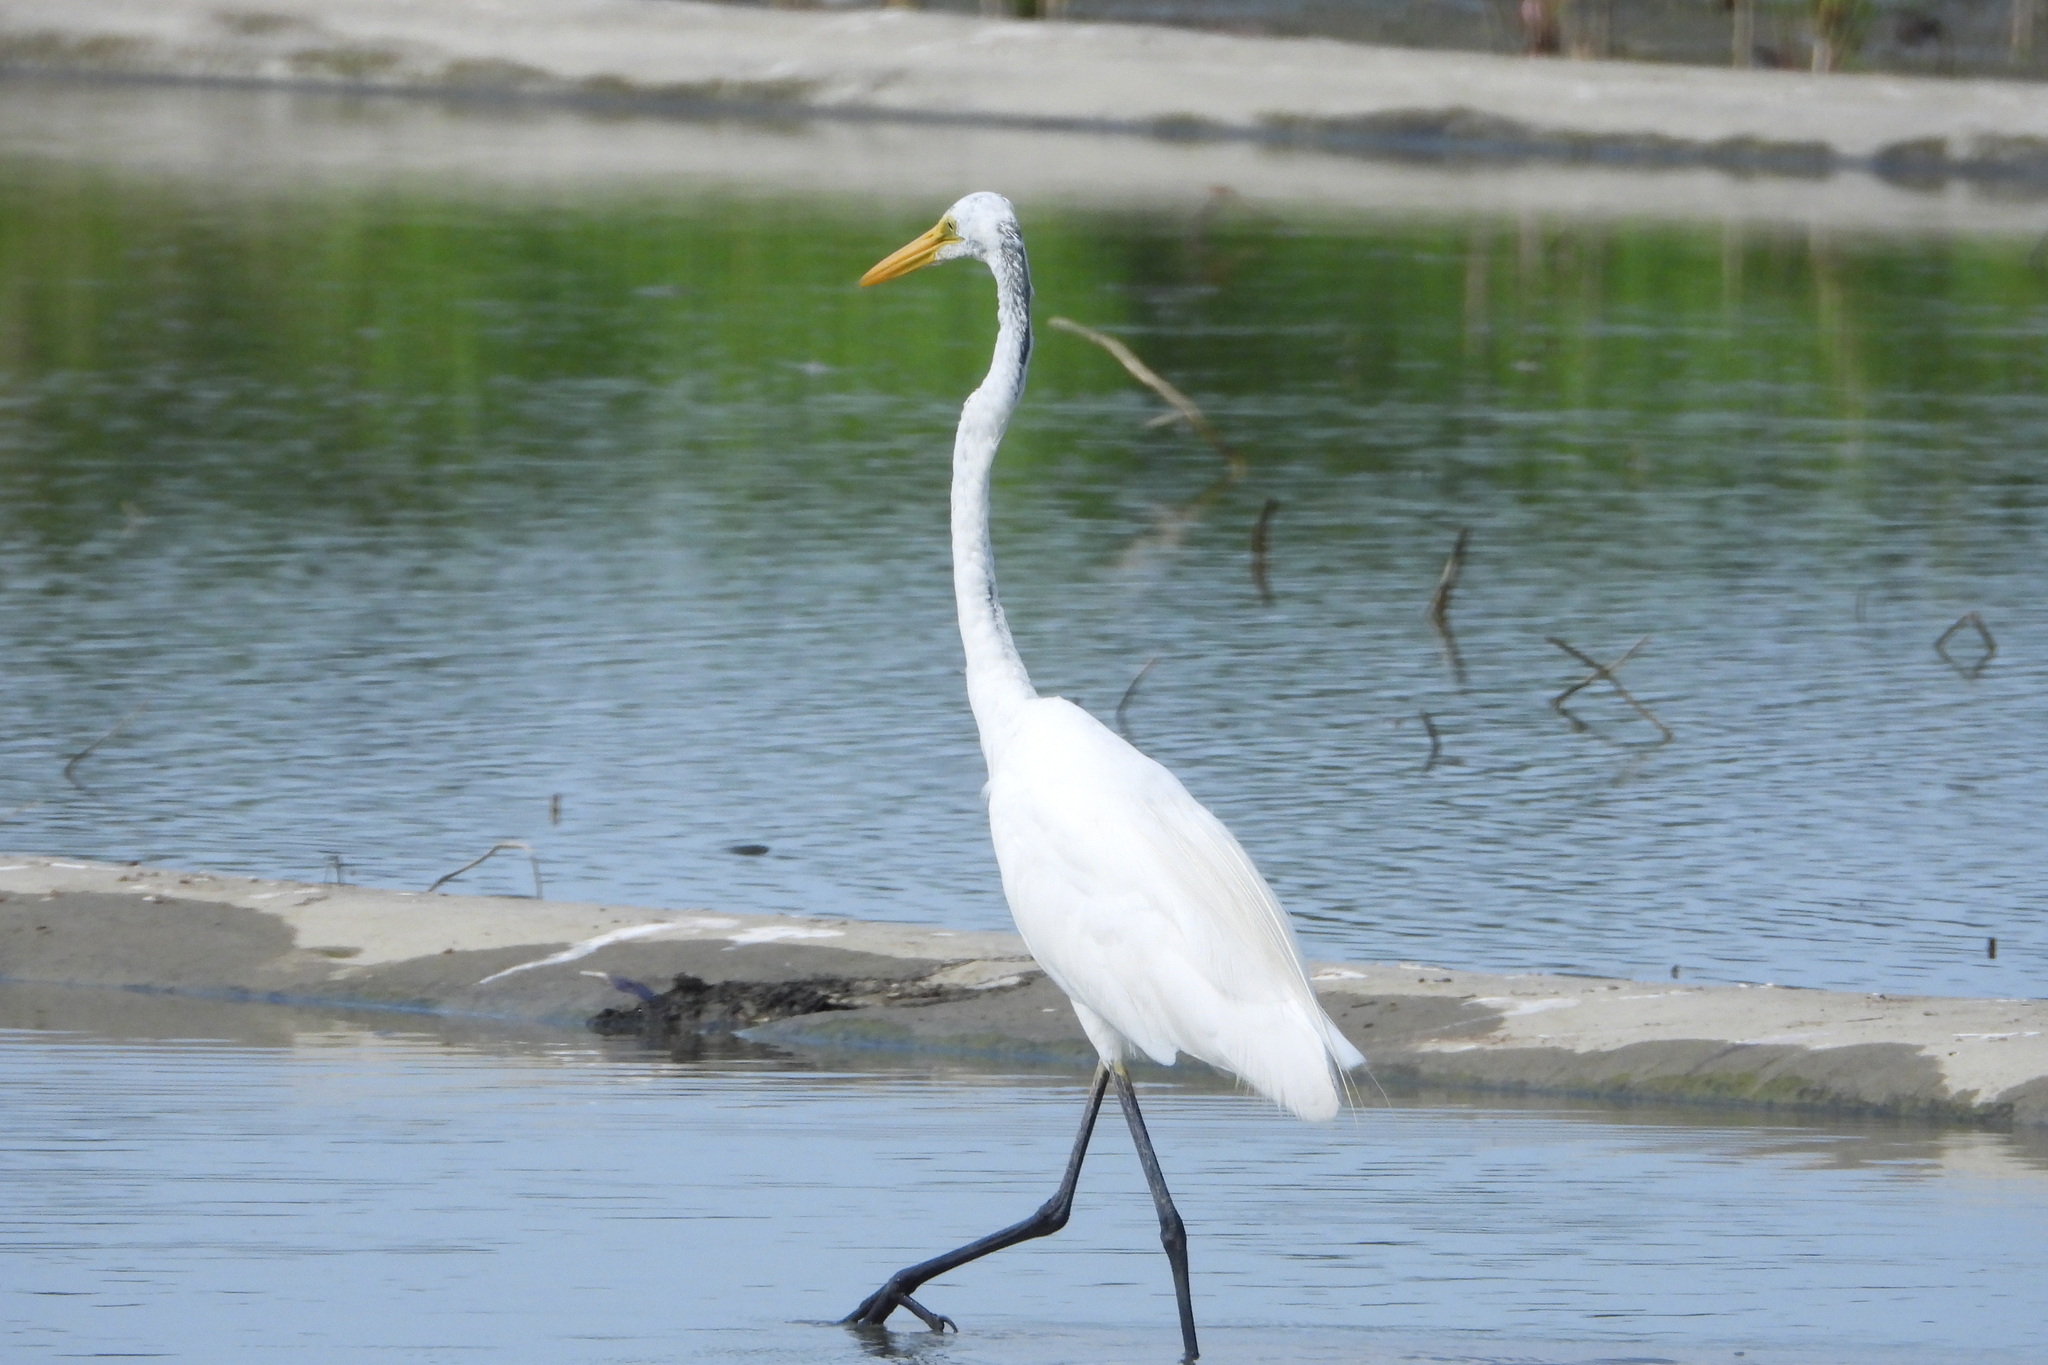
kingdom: Animalia
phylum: Chordata
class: Aves
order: Pelecaniformes
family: Ardeidae
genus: Ardea
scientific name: Ardea alba
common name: Great egret
